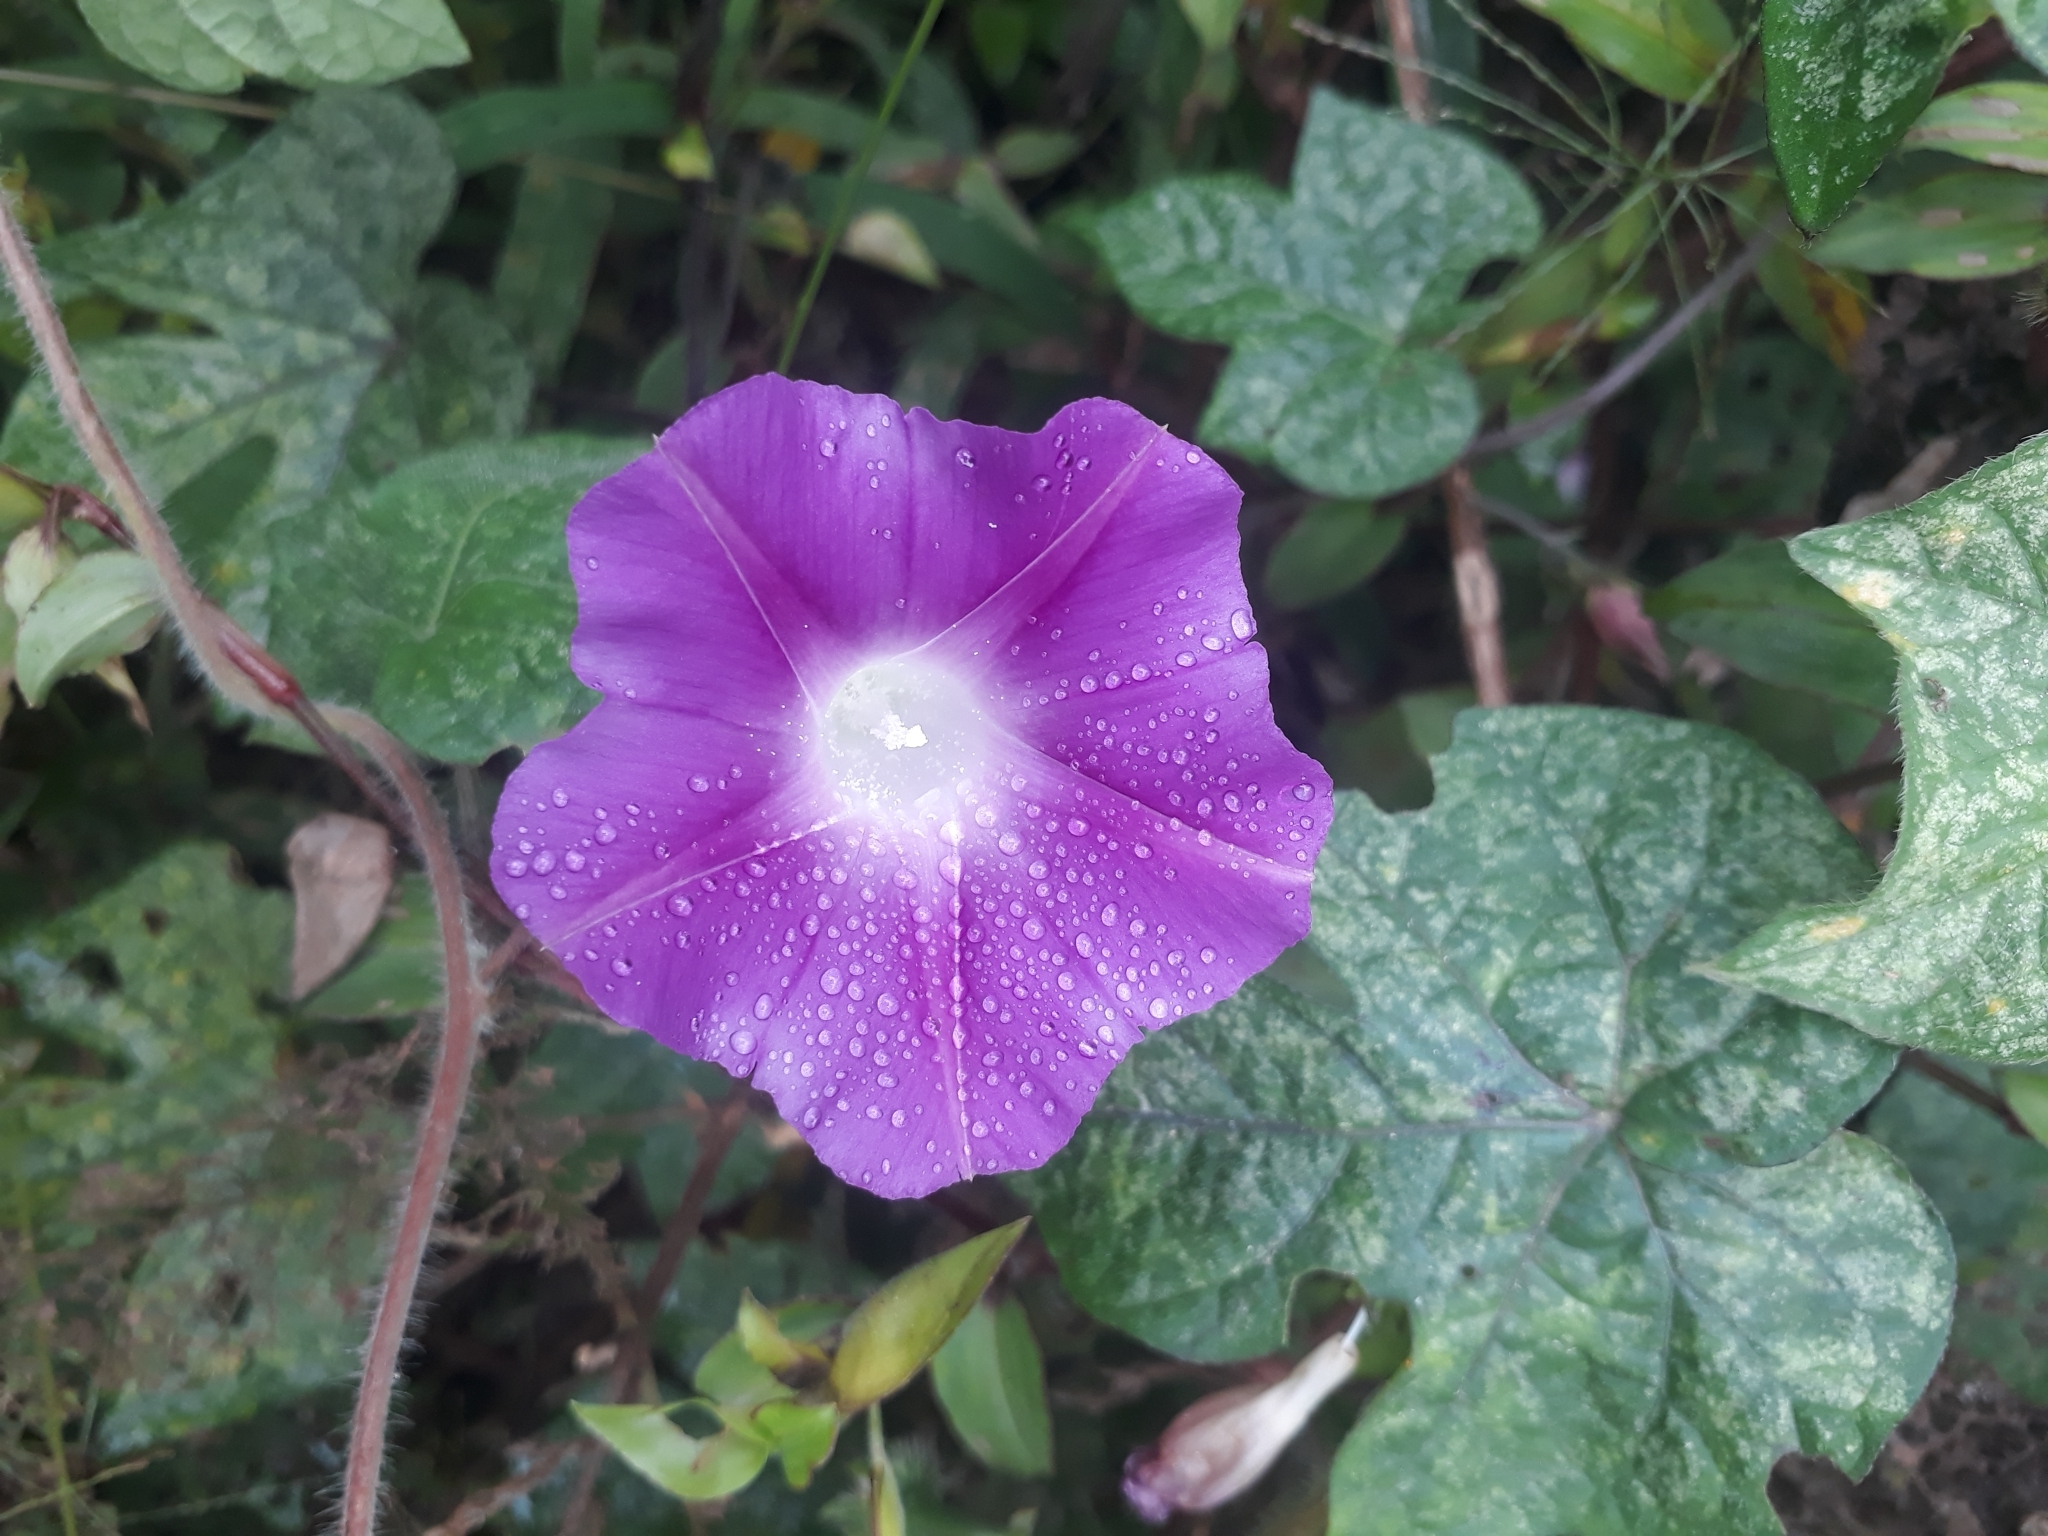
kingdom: Plantae
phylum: Tracheophyta
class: Magnoliopsida
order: Solanales
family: Convolvulaceae
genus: Ipomoea
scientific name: Ipomoea purpurea
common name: Common morning-glory
